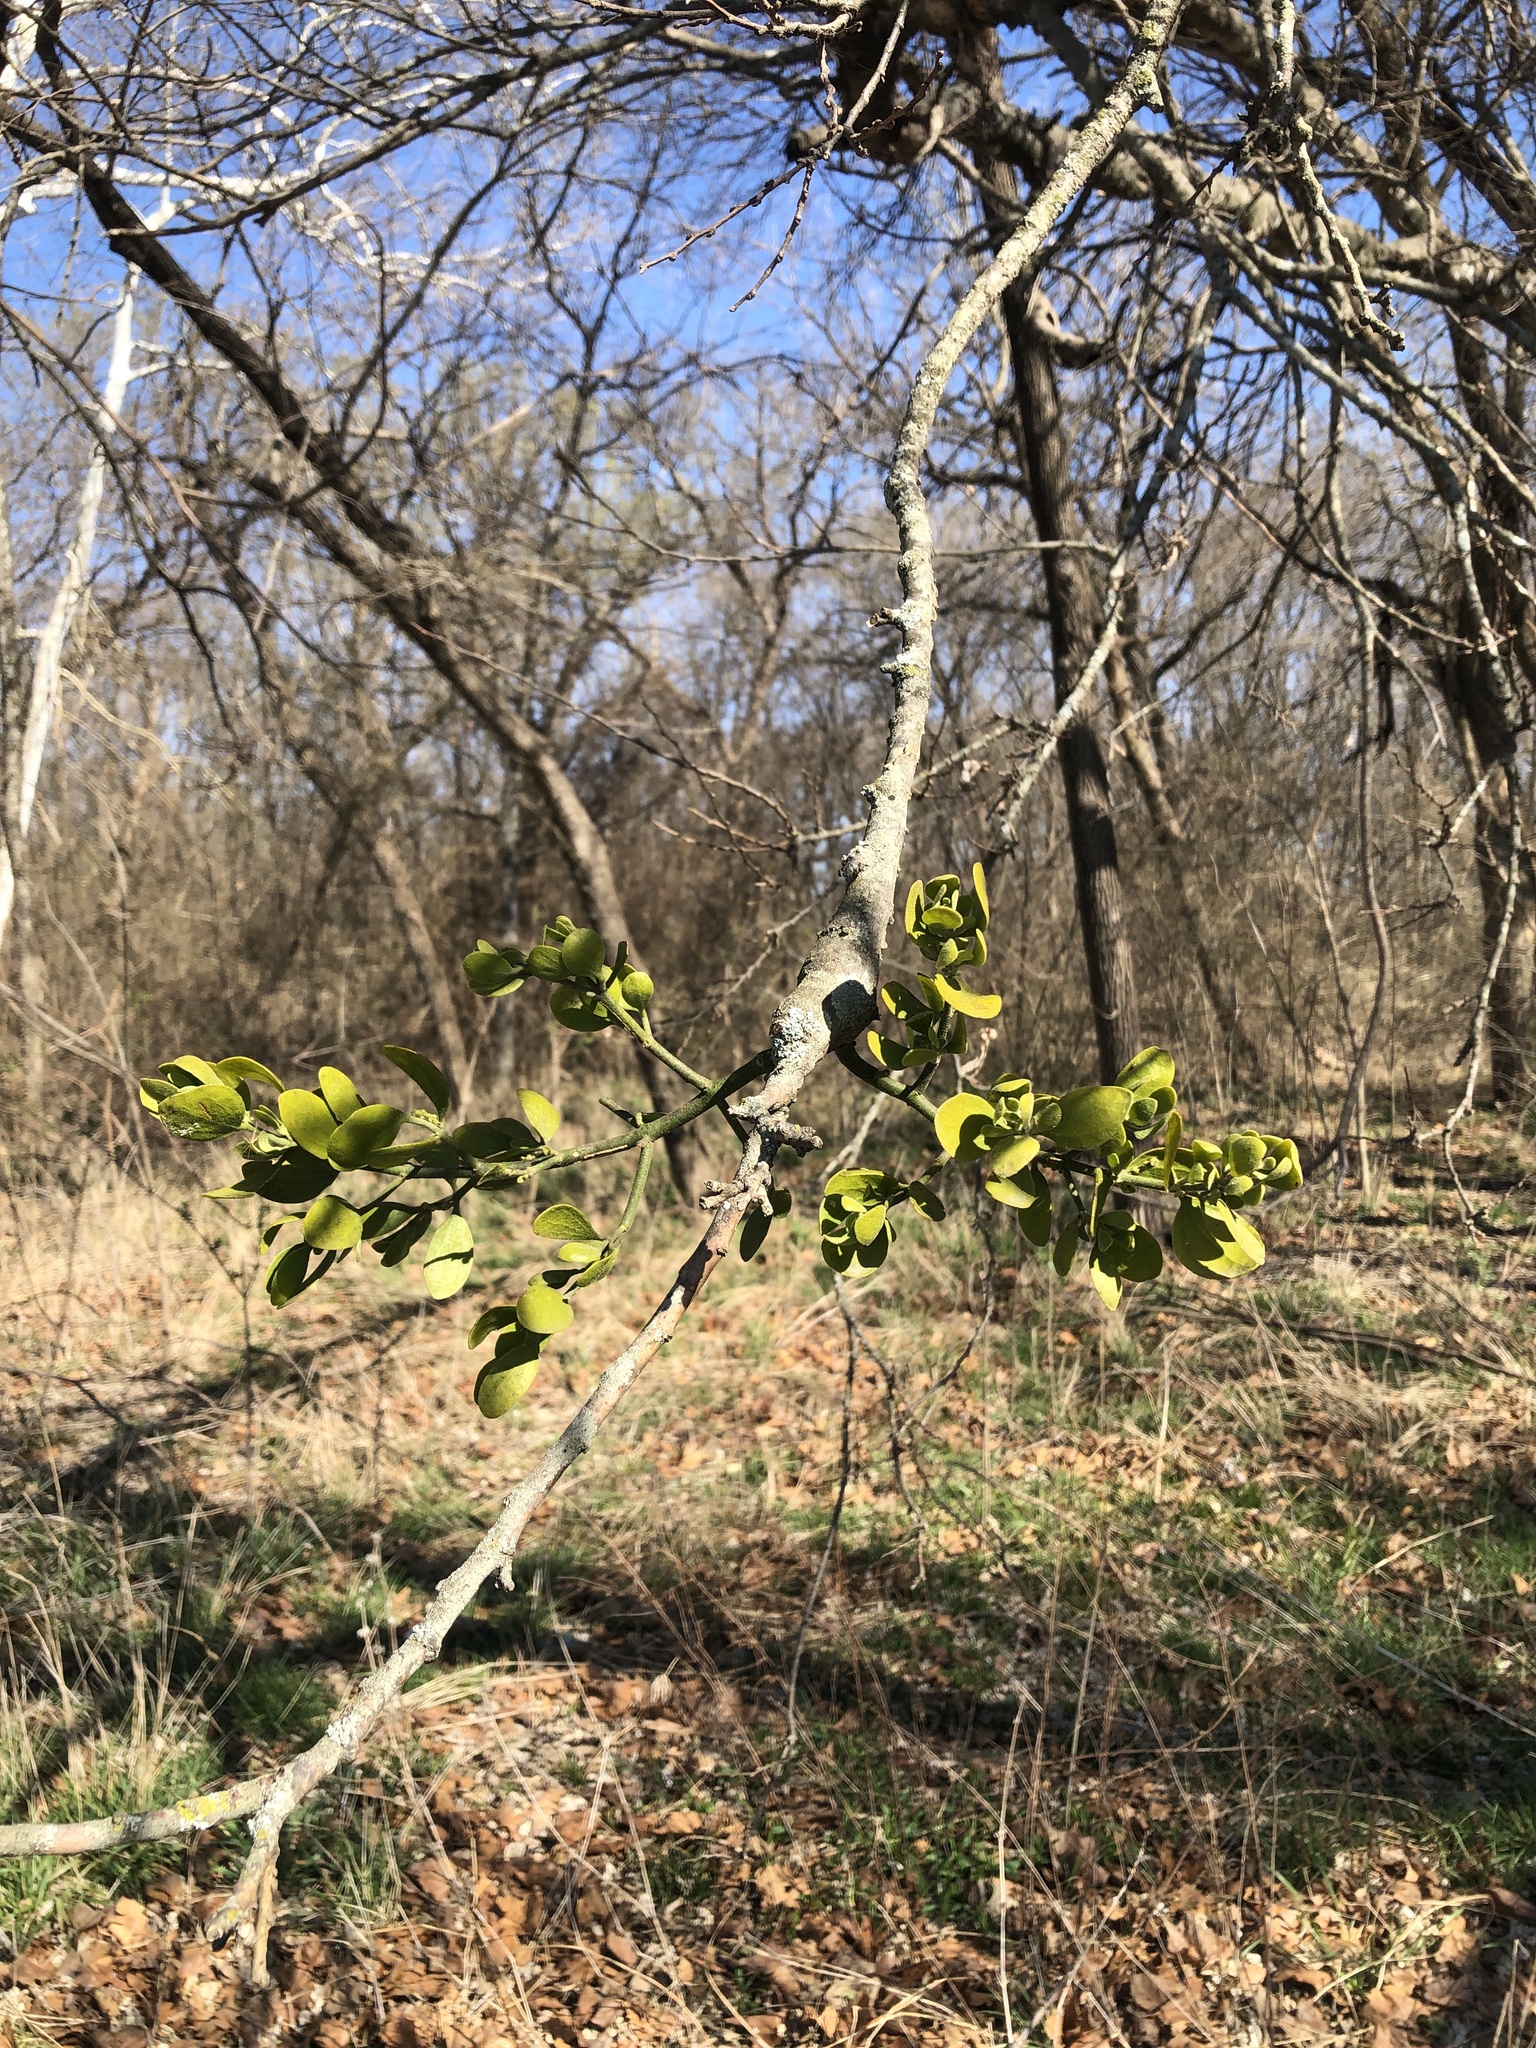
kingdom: Plantae
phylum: Tracheophyta
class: Magnoliopsida
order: Santalales
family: Viscaceae
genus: Phoradendron
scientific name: Phoradendron leucarpum
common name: Pacific mistletoe
